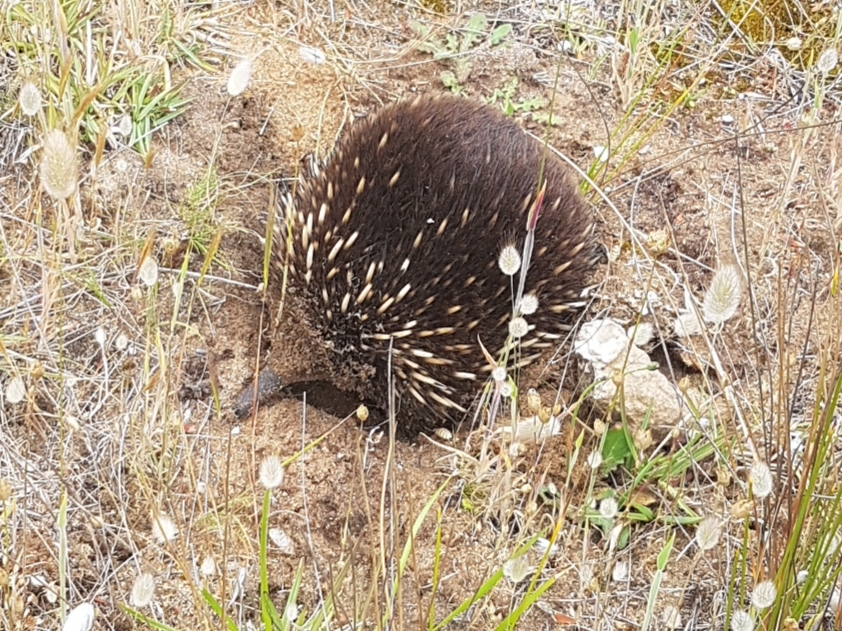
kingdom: Animalia
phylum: Chordata
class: Mammalia
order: Monotremata
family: Tachyglossidae
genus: Tachyglossus
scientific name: Tachyglossus aculeatus
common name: Short-beaked echidna
